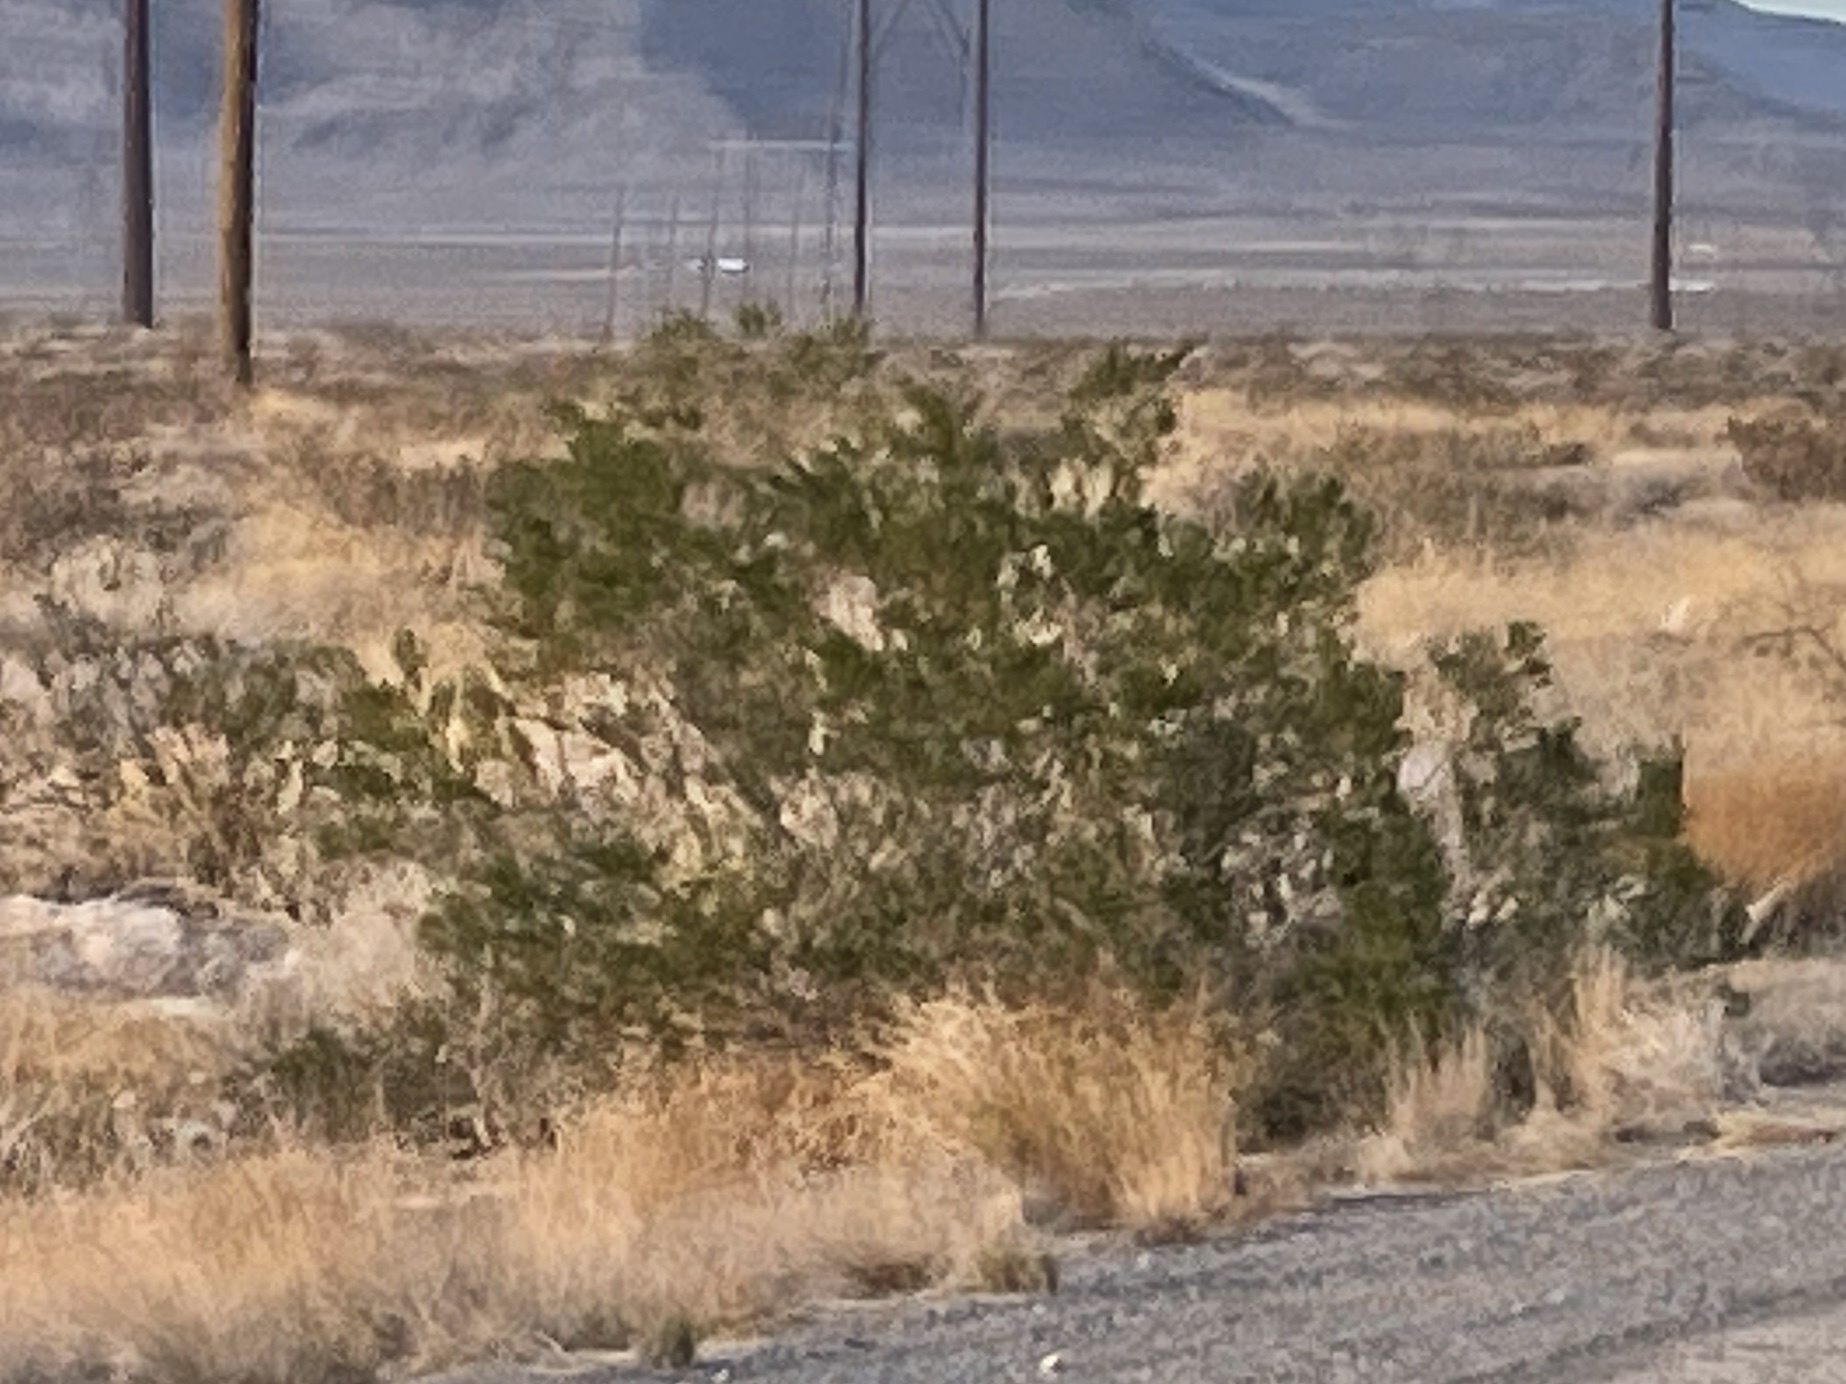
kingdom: Plantae
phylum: Tracheophyta
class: Magnoliopsida
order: Zygophyllales
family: Zygophyllaceae
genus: Larrea
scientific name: Larrea tridentata
